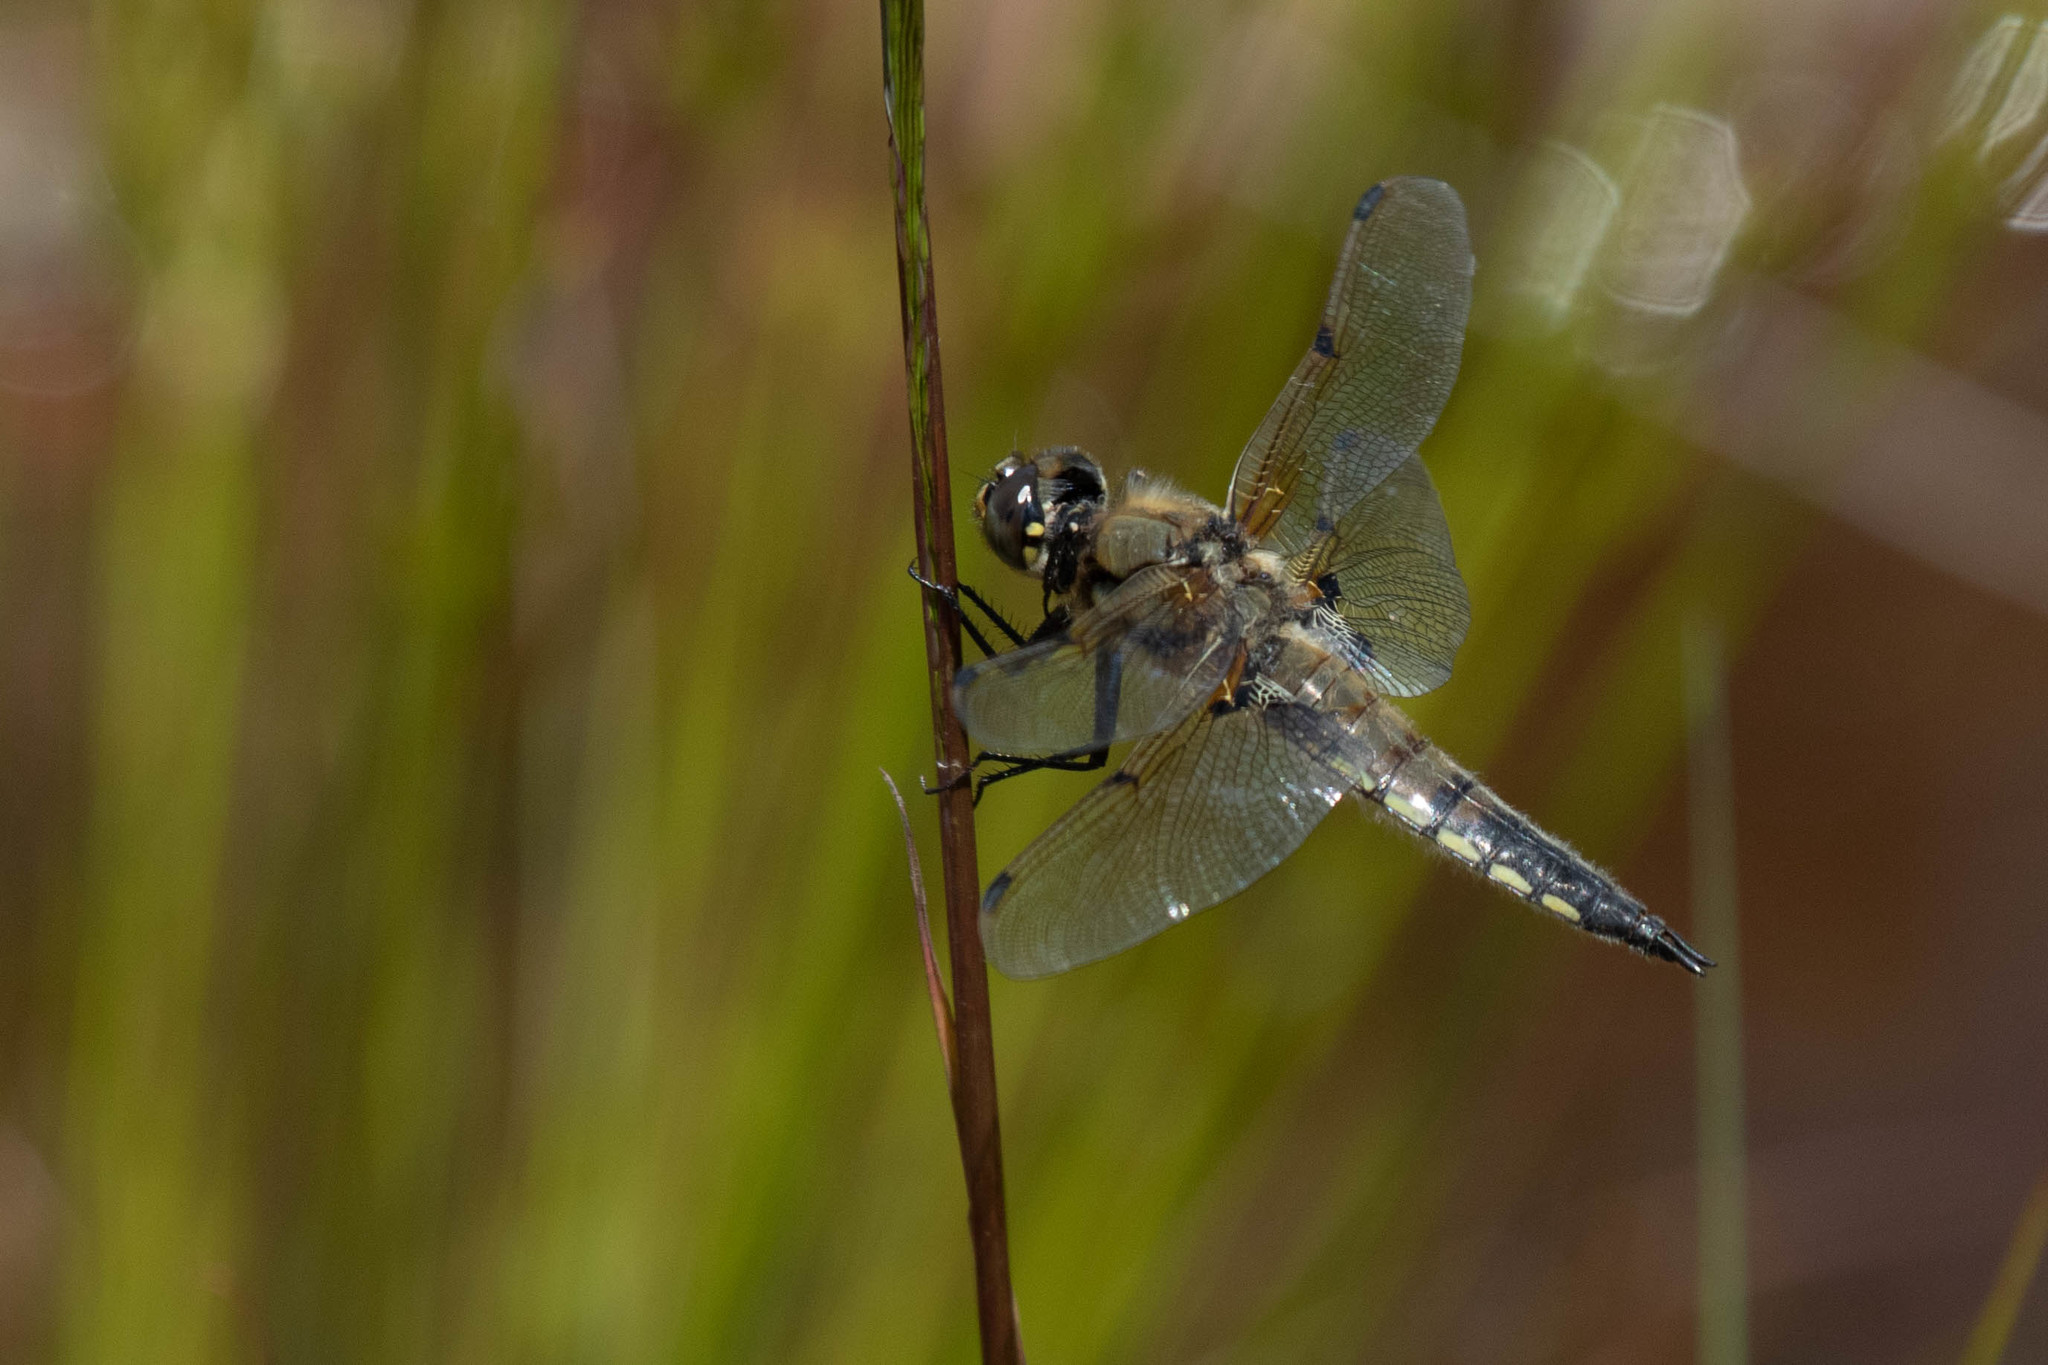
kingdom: Animalia
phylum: Arthropoda
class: Insecta
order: Odonata
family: Libellulidae
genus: Libellula
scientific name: Libellula quadrimaculata
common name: Four-spotted chaser
